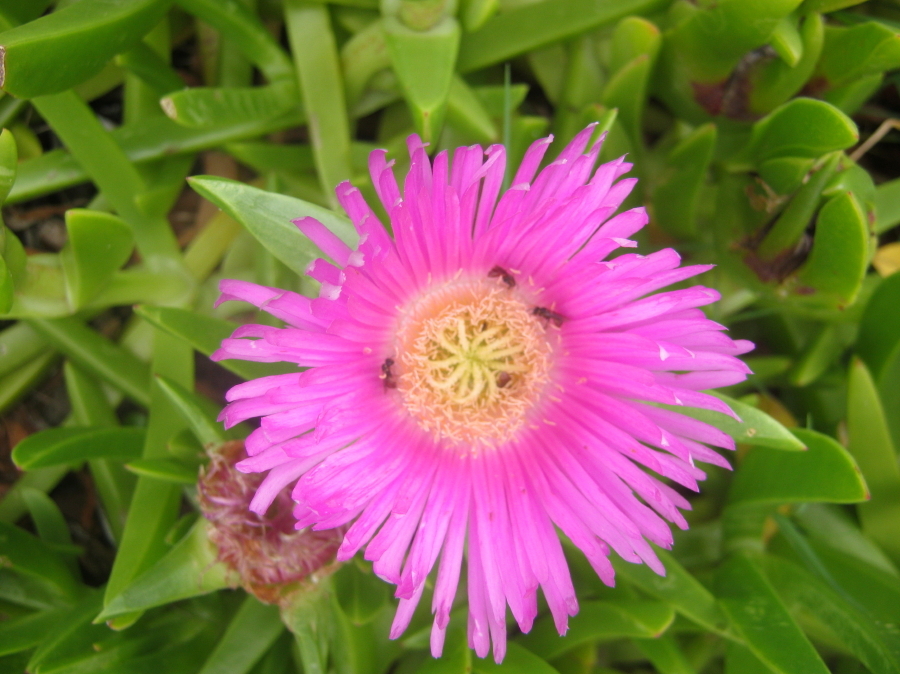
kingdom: Plantae
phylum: Tracheophyta
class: Magnoliopsida
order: Caryophyllales
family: Aizoaceae
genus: Carpobrotus
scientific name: Carpobrotus deliciosus
